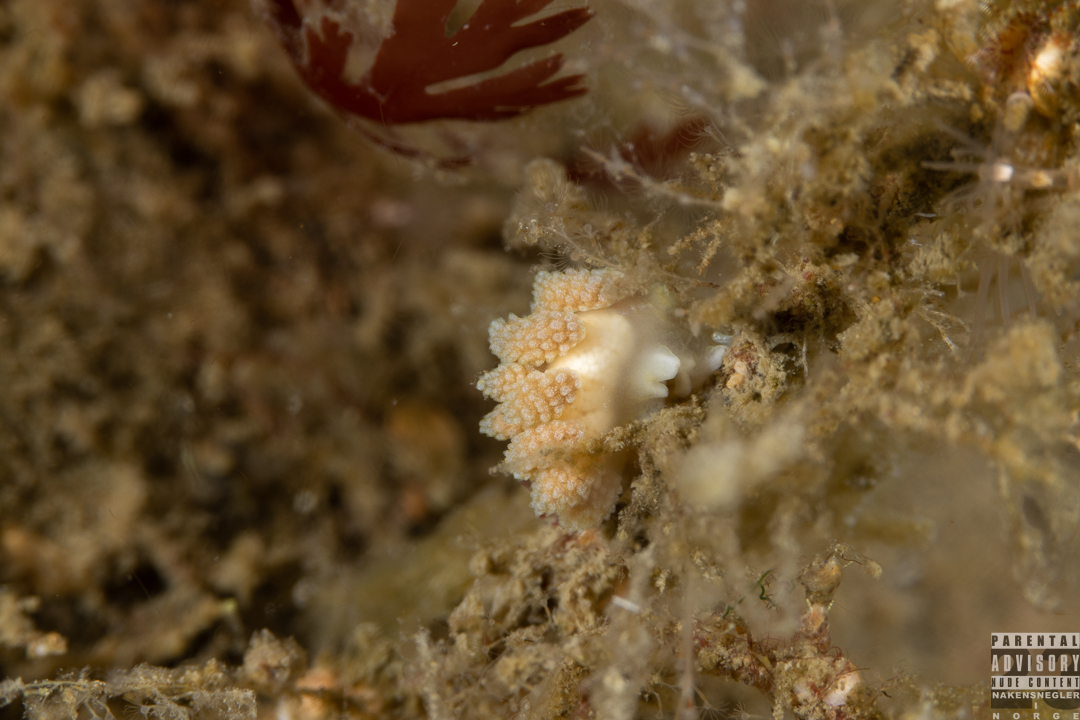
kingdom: Animalia
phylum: Mollusca
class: Gastropoda
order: Nudibranchia
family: Dotidae
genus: Doto
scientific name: Doto fragilis
